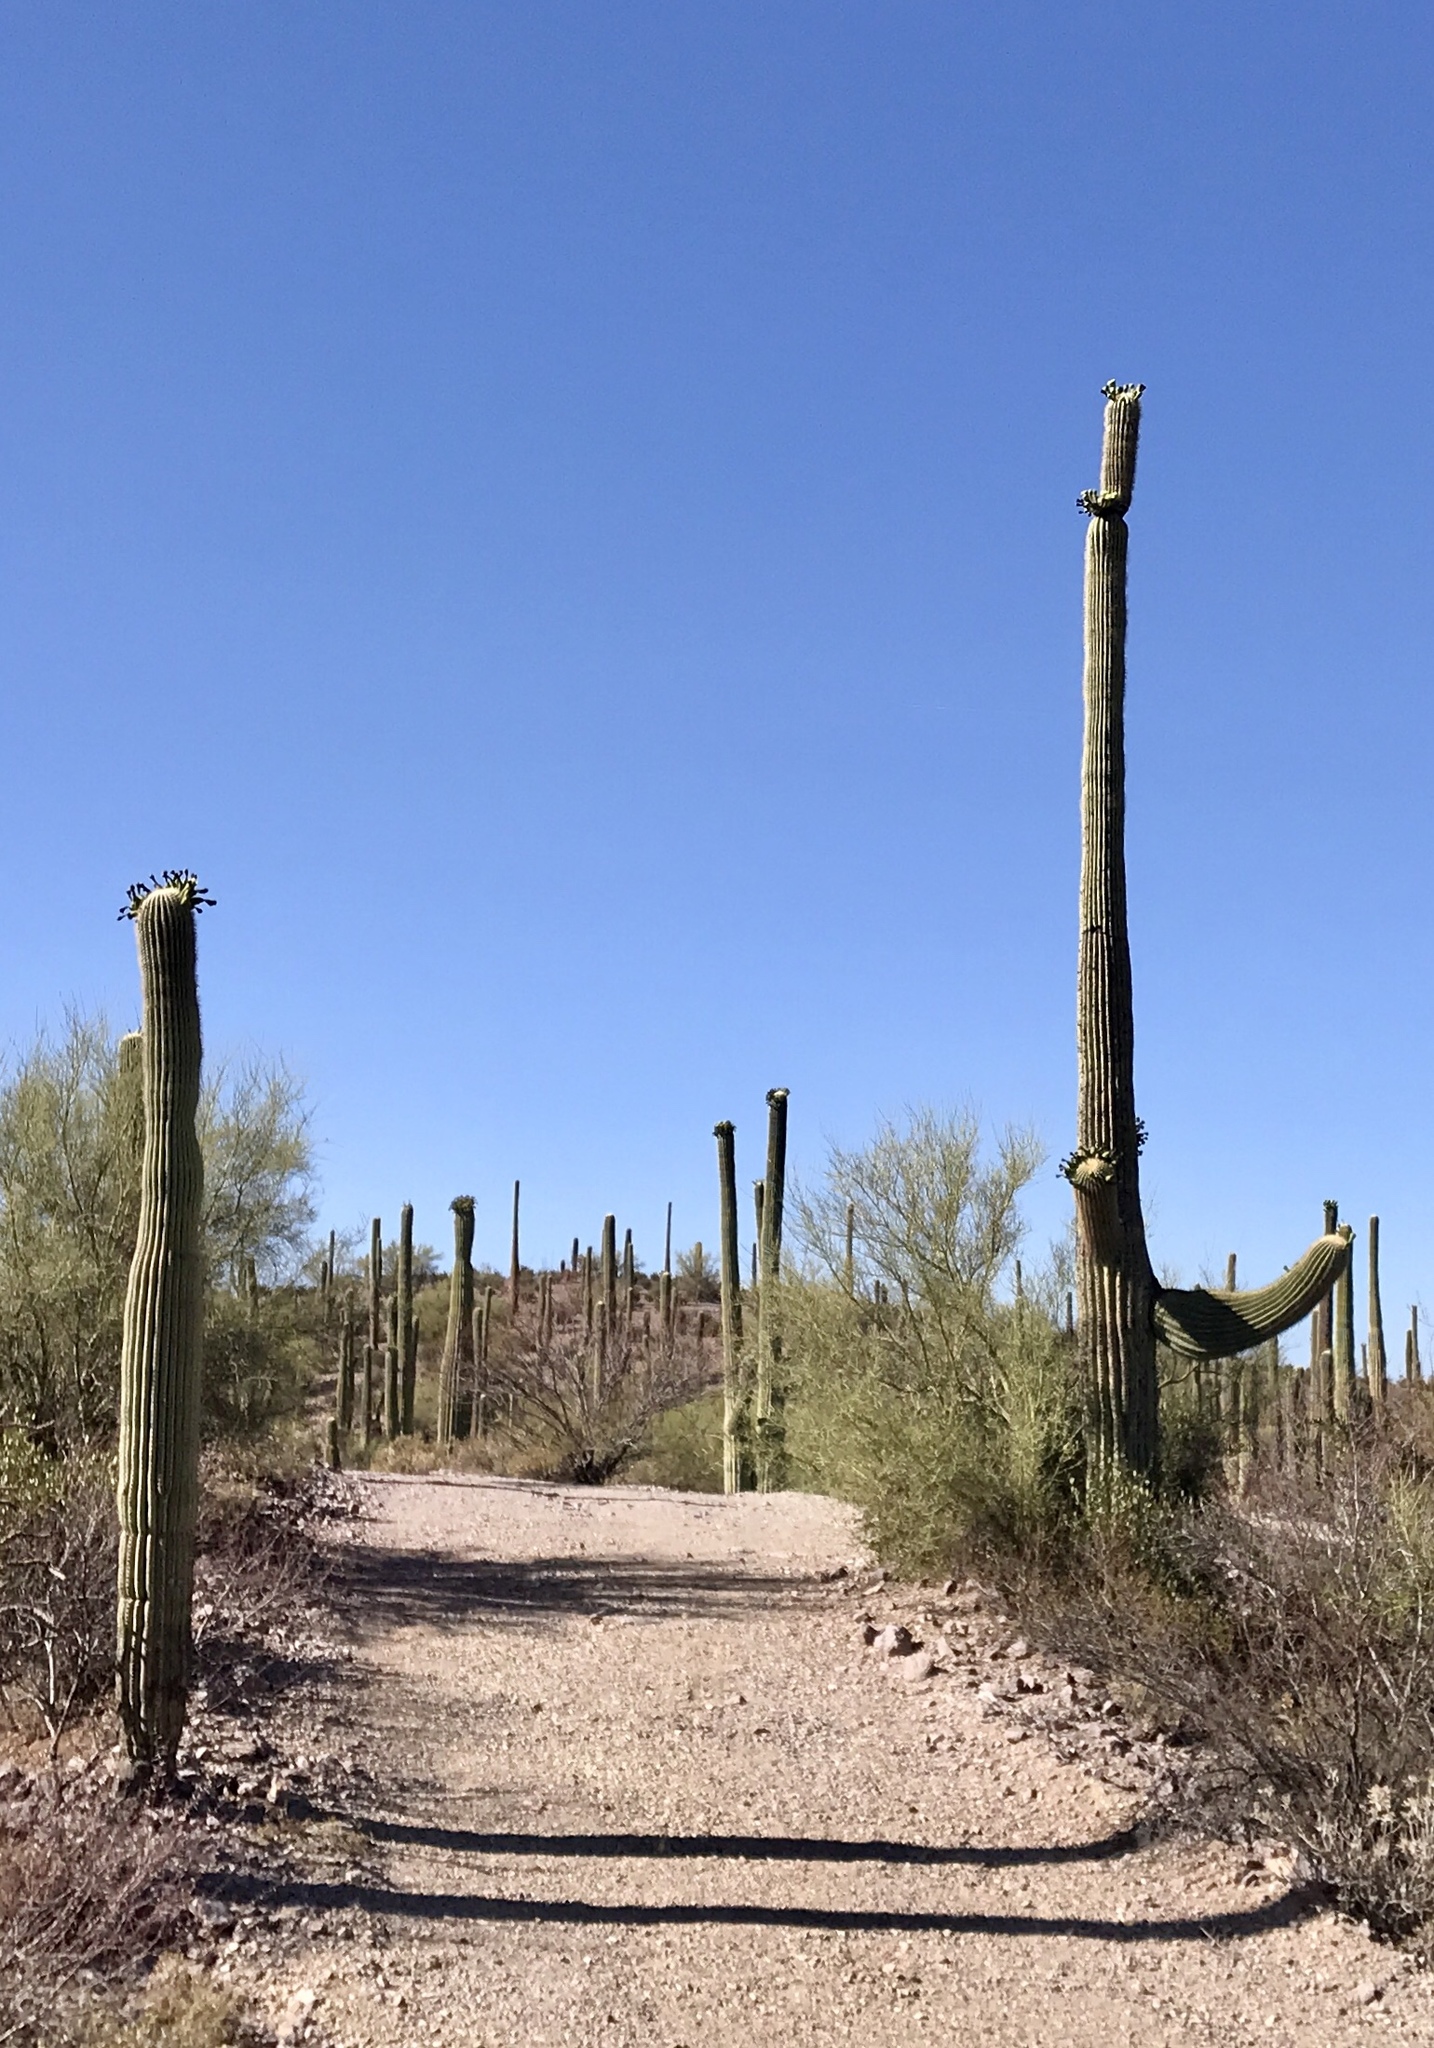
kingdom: Plantae
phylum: Tracheophyta
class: Magnoliopsida
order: Caryophyllales
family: Cactaceae
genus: Carnegiea
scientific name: Carnegiea gigantea
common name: Saguaro
